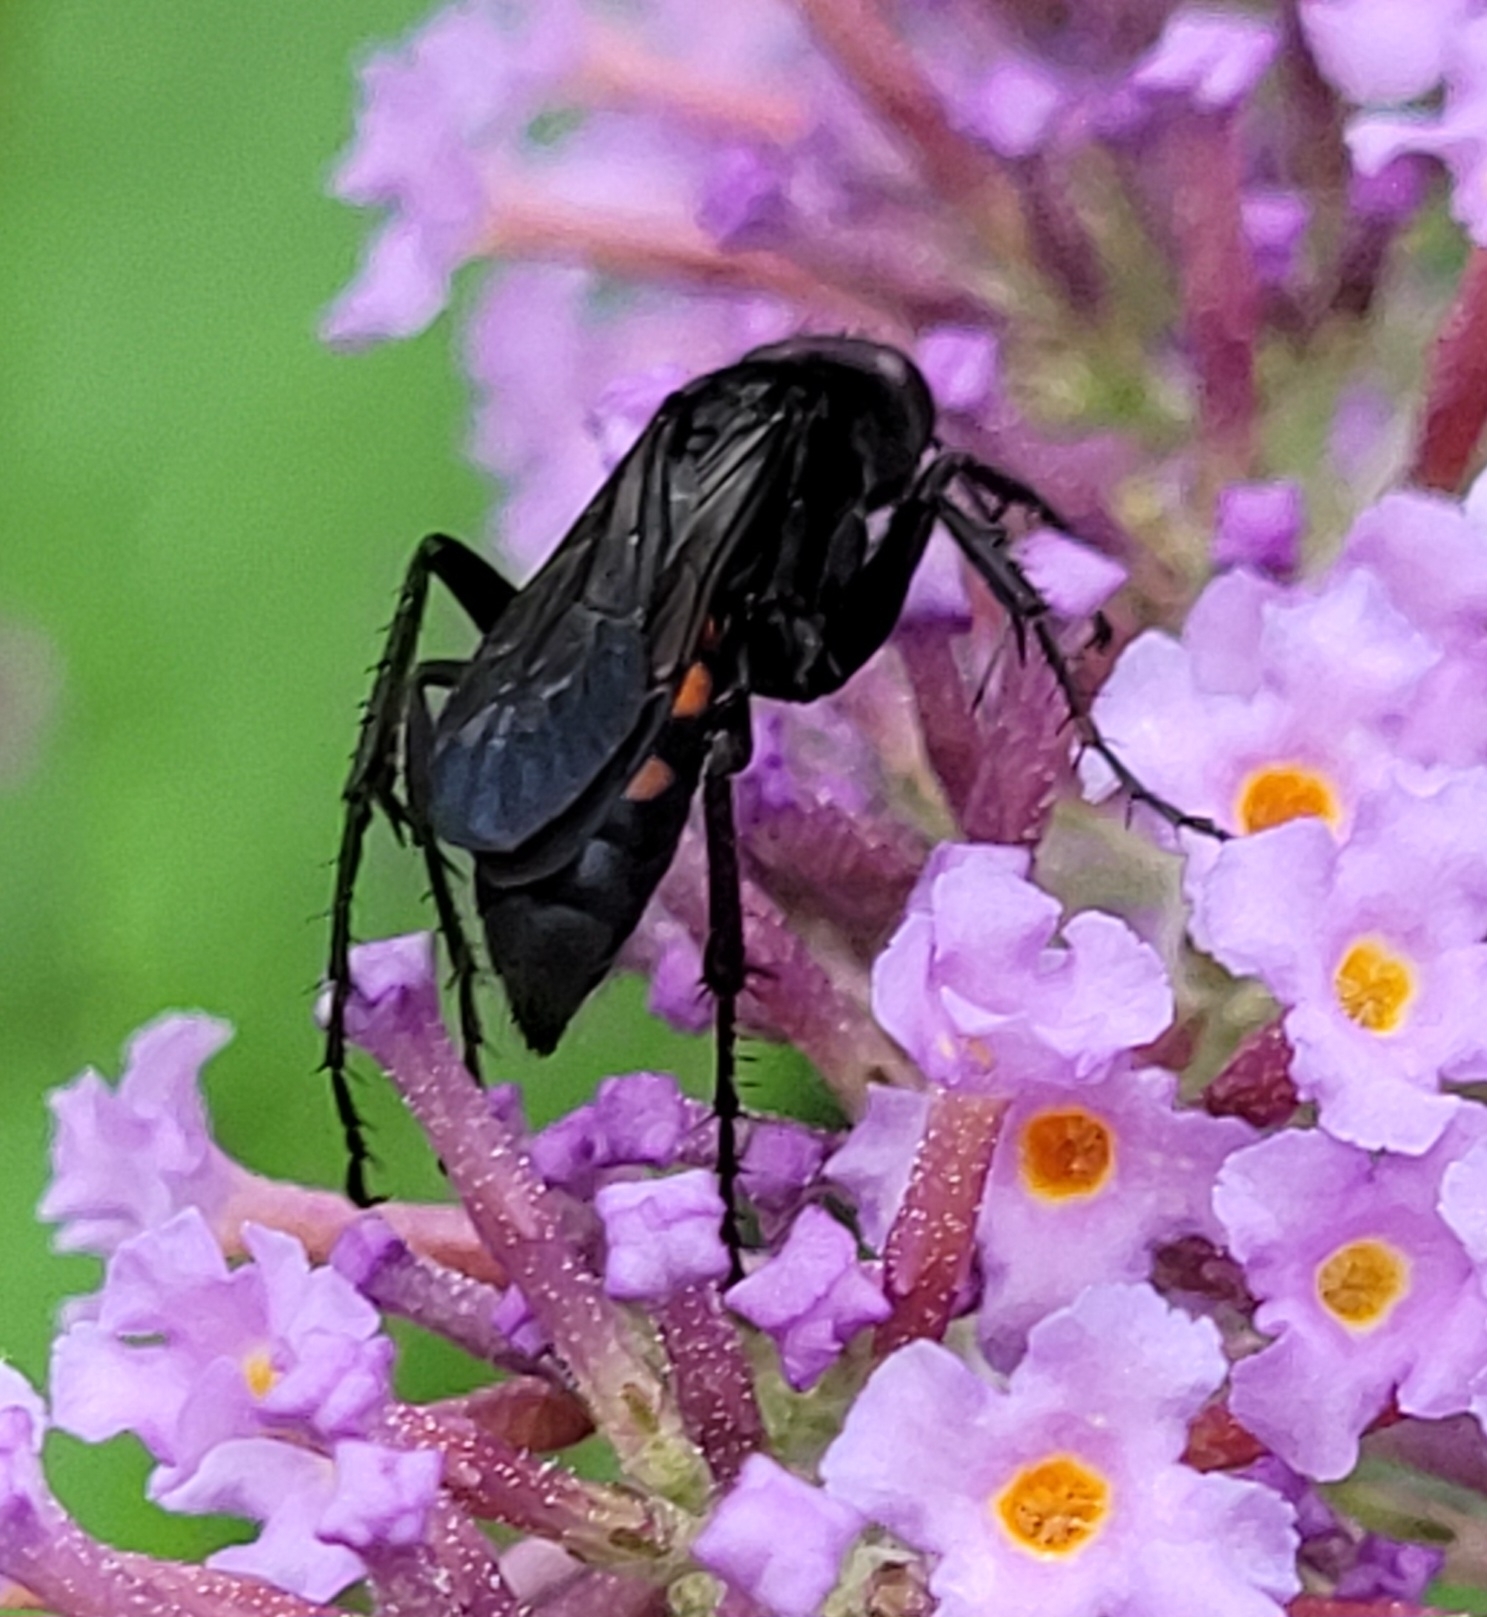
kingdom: Animalia
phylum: Arthropoda
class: Insecta
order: Hymenoptera
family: Pompilidae
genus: Anoplius
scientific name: Anoplius viaticus
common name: Black banded spider wasp
